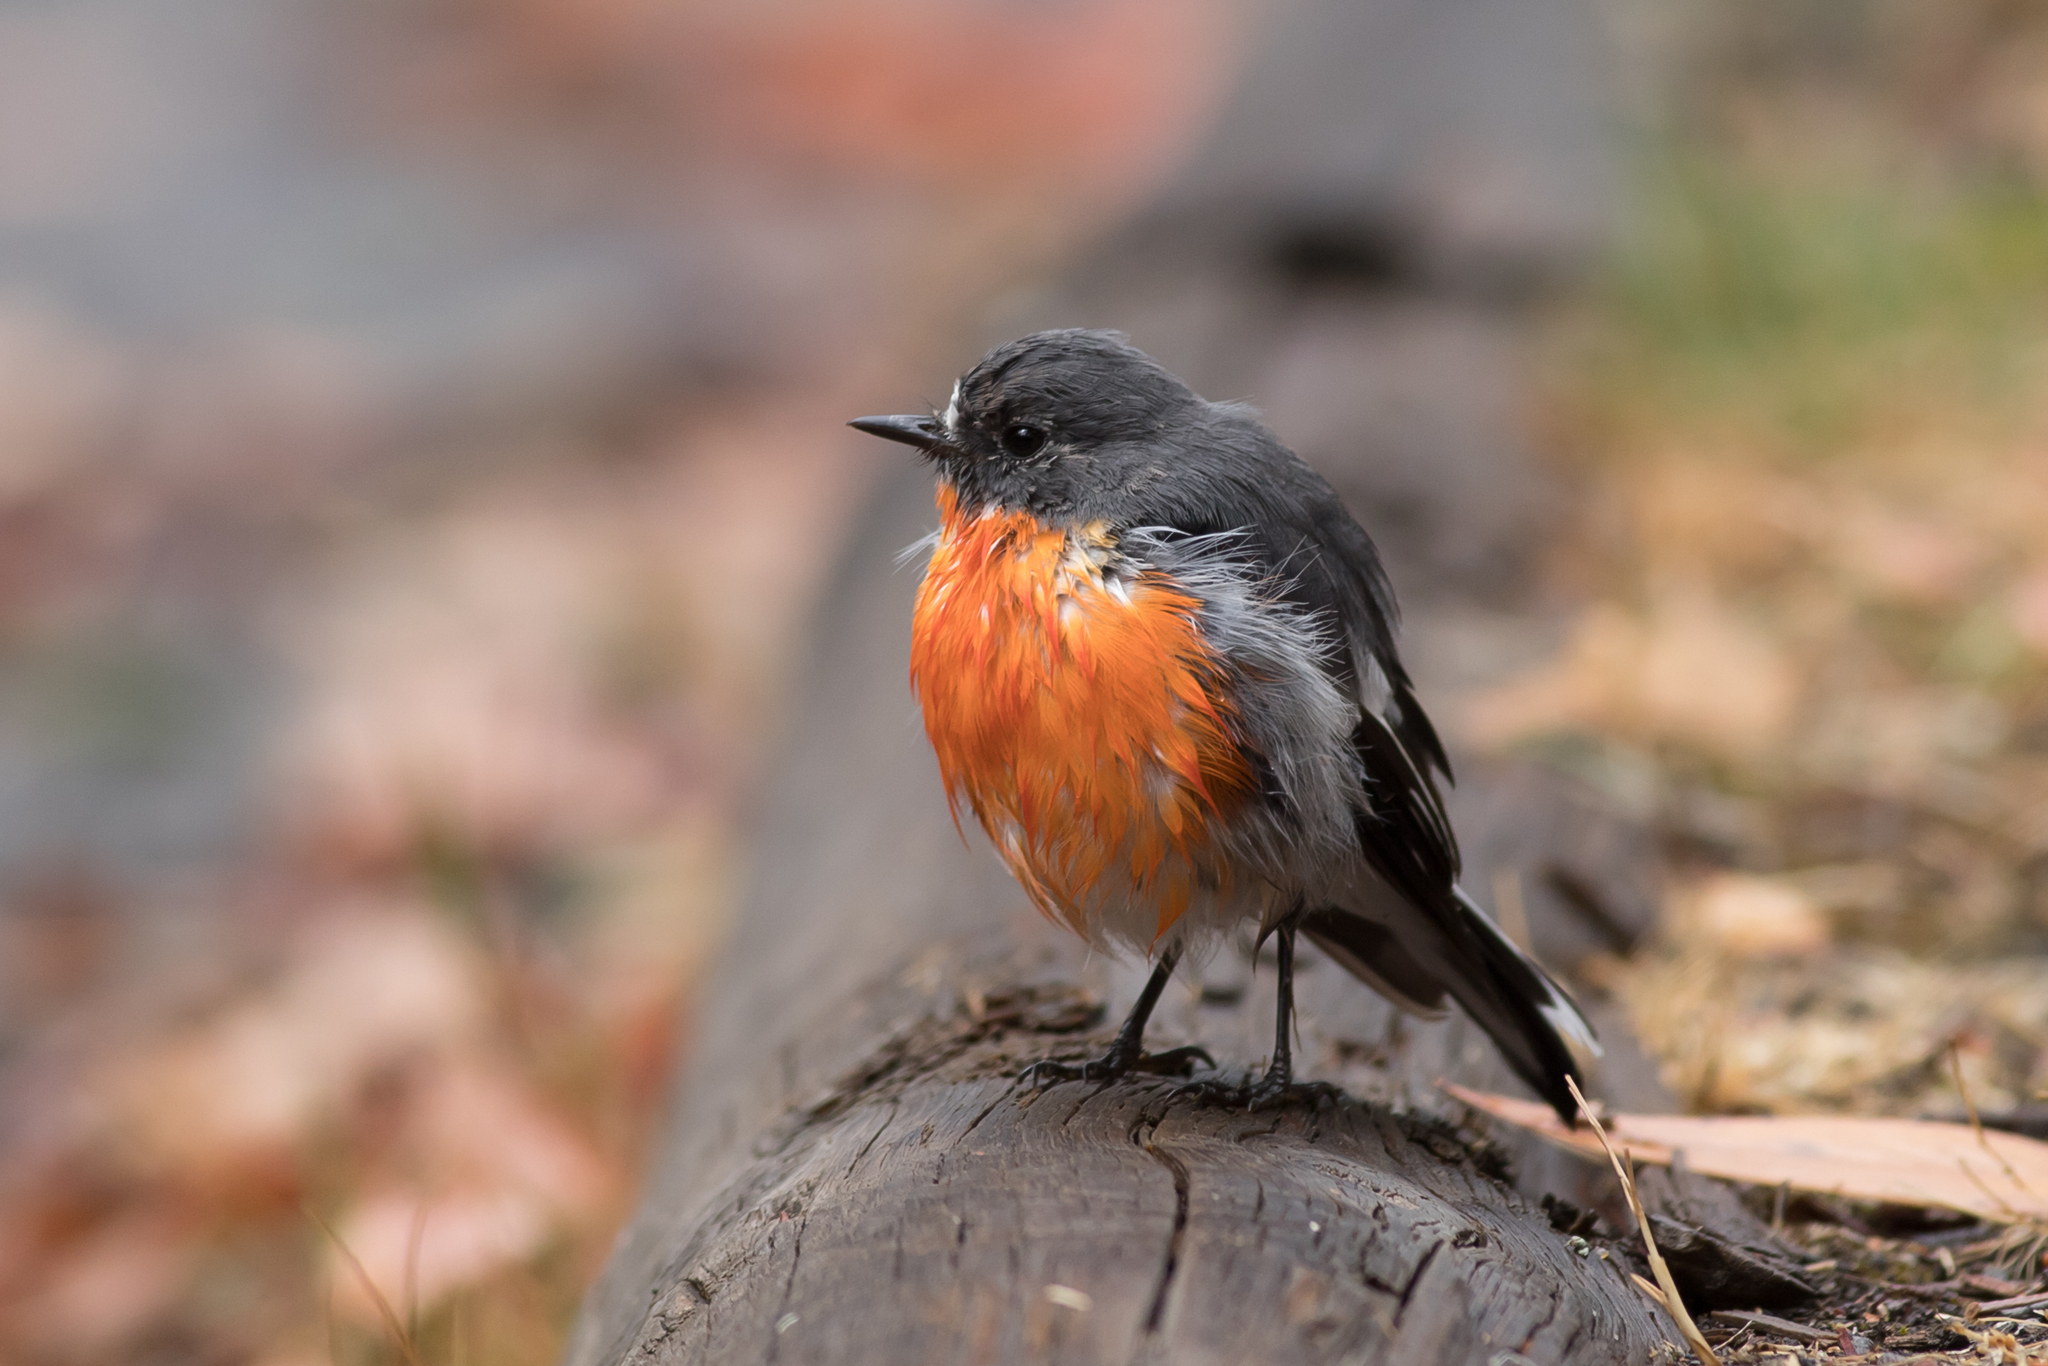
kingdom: Animalia
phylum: Chordata
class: Aves
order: Passeriformes
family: Petroicidae
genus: Petroica
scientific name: Petroica phoenicea
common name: Flame robin
